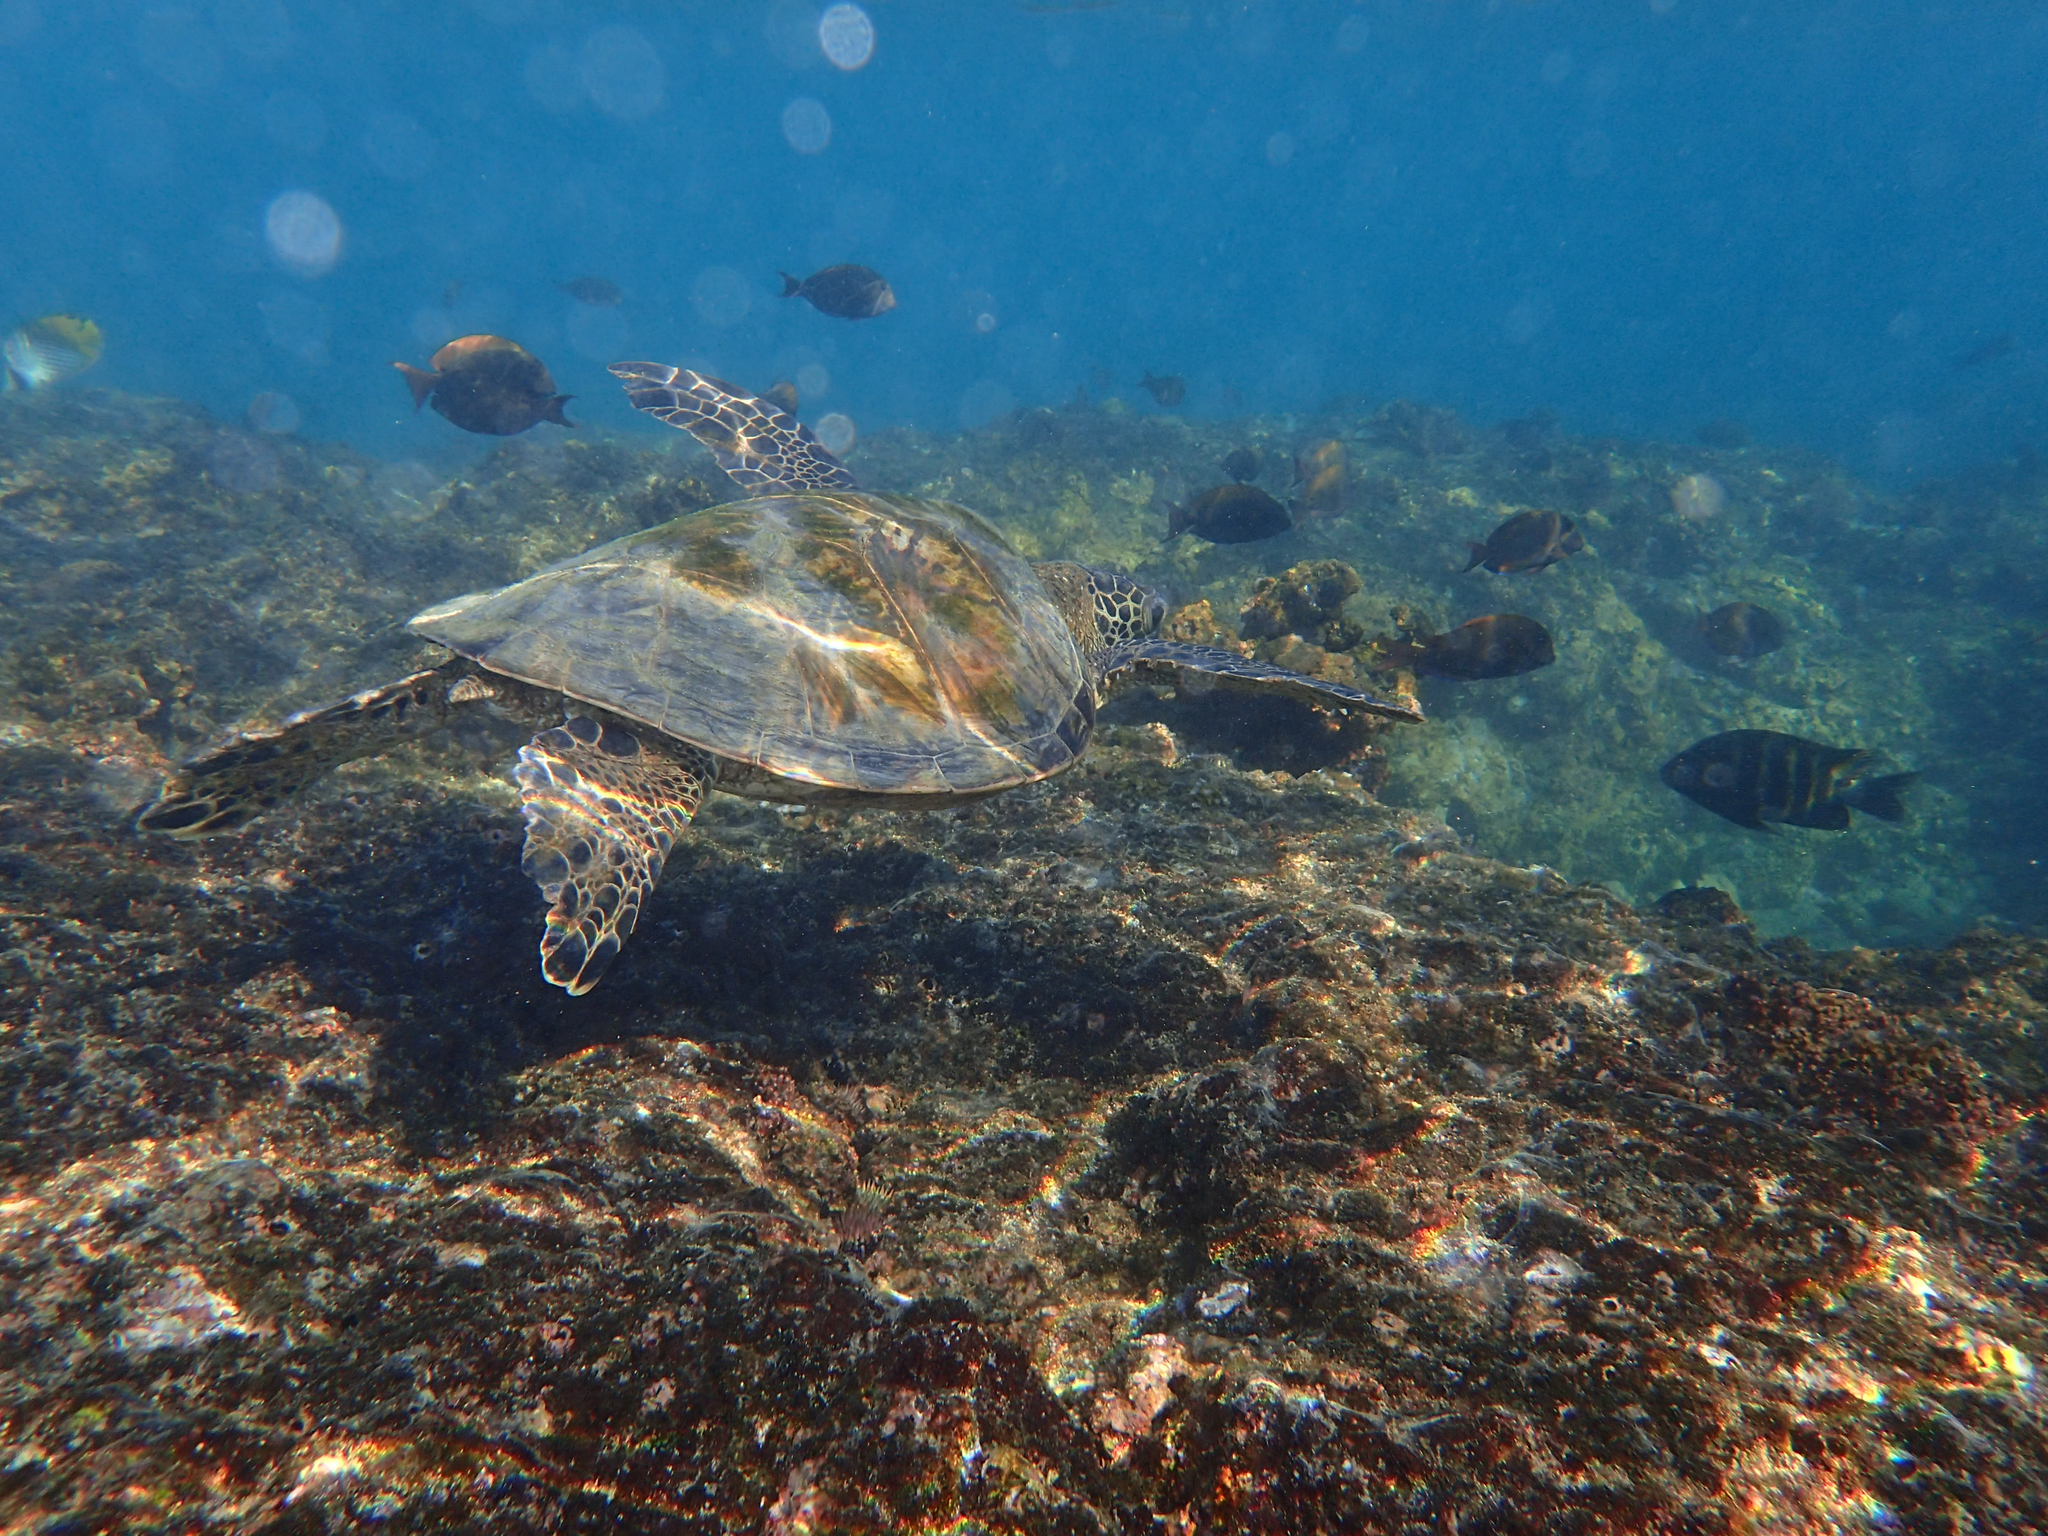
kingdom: Animalia
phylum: Chordata
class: Testudines
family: Cheloniidae
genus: Chelonia
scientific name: Chelonia mydas
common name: Green turtle
